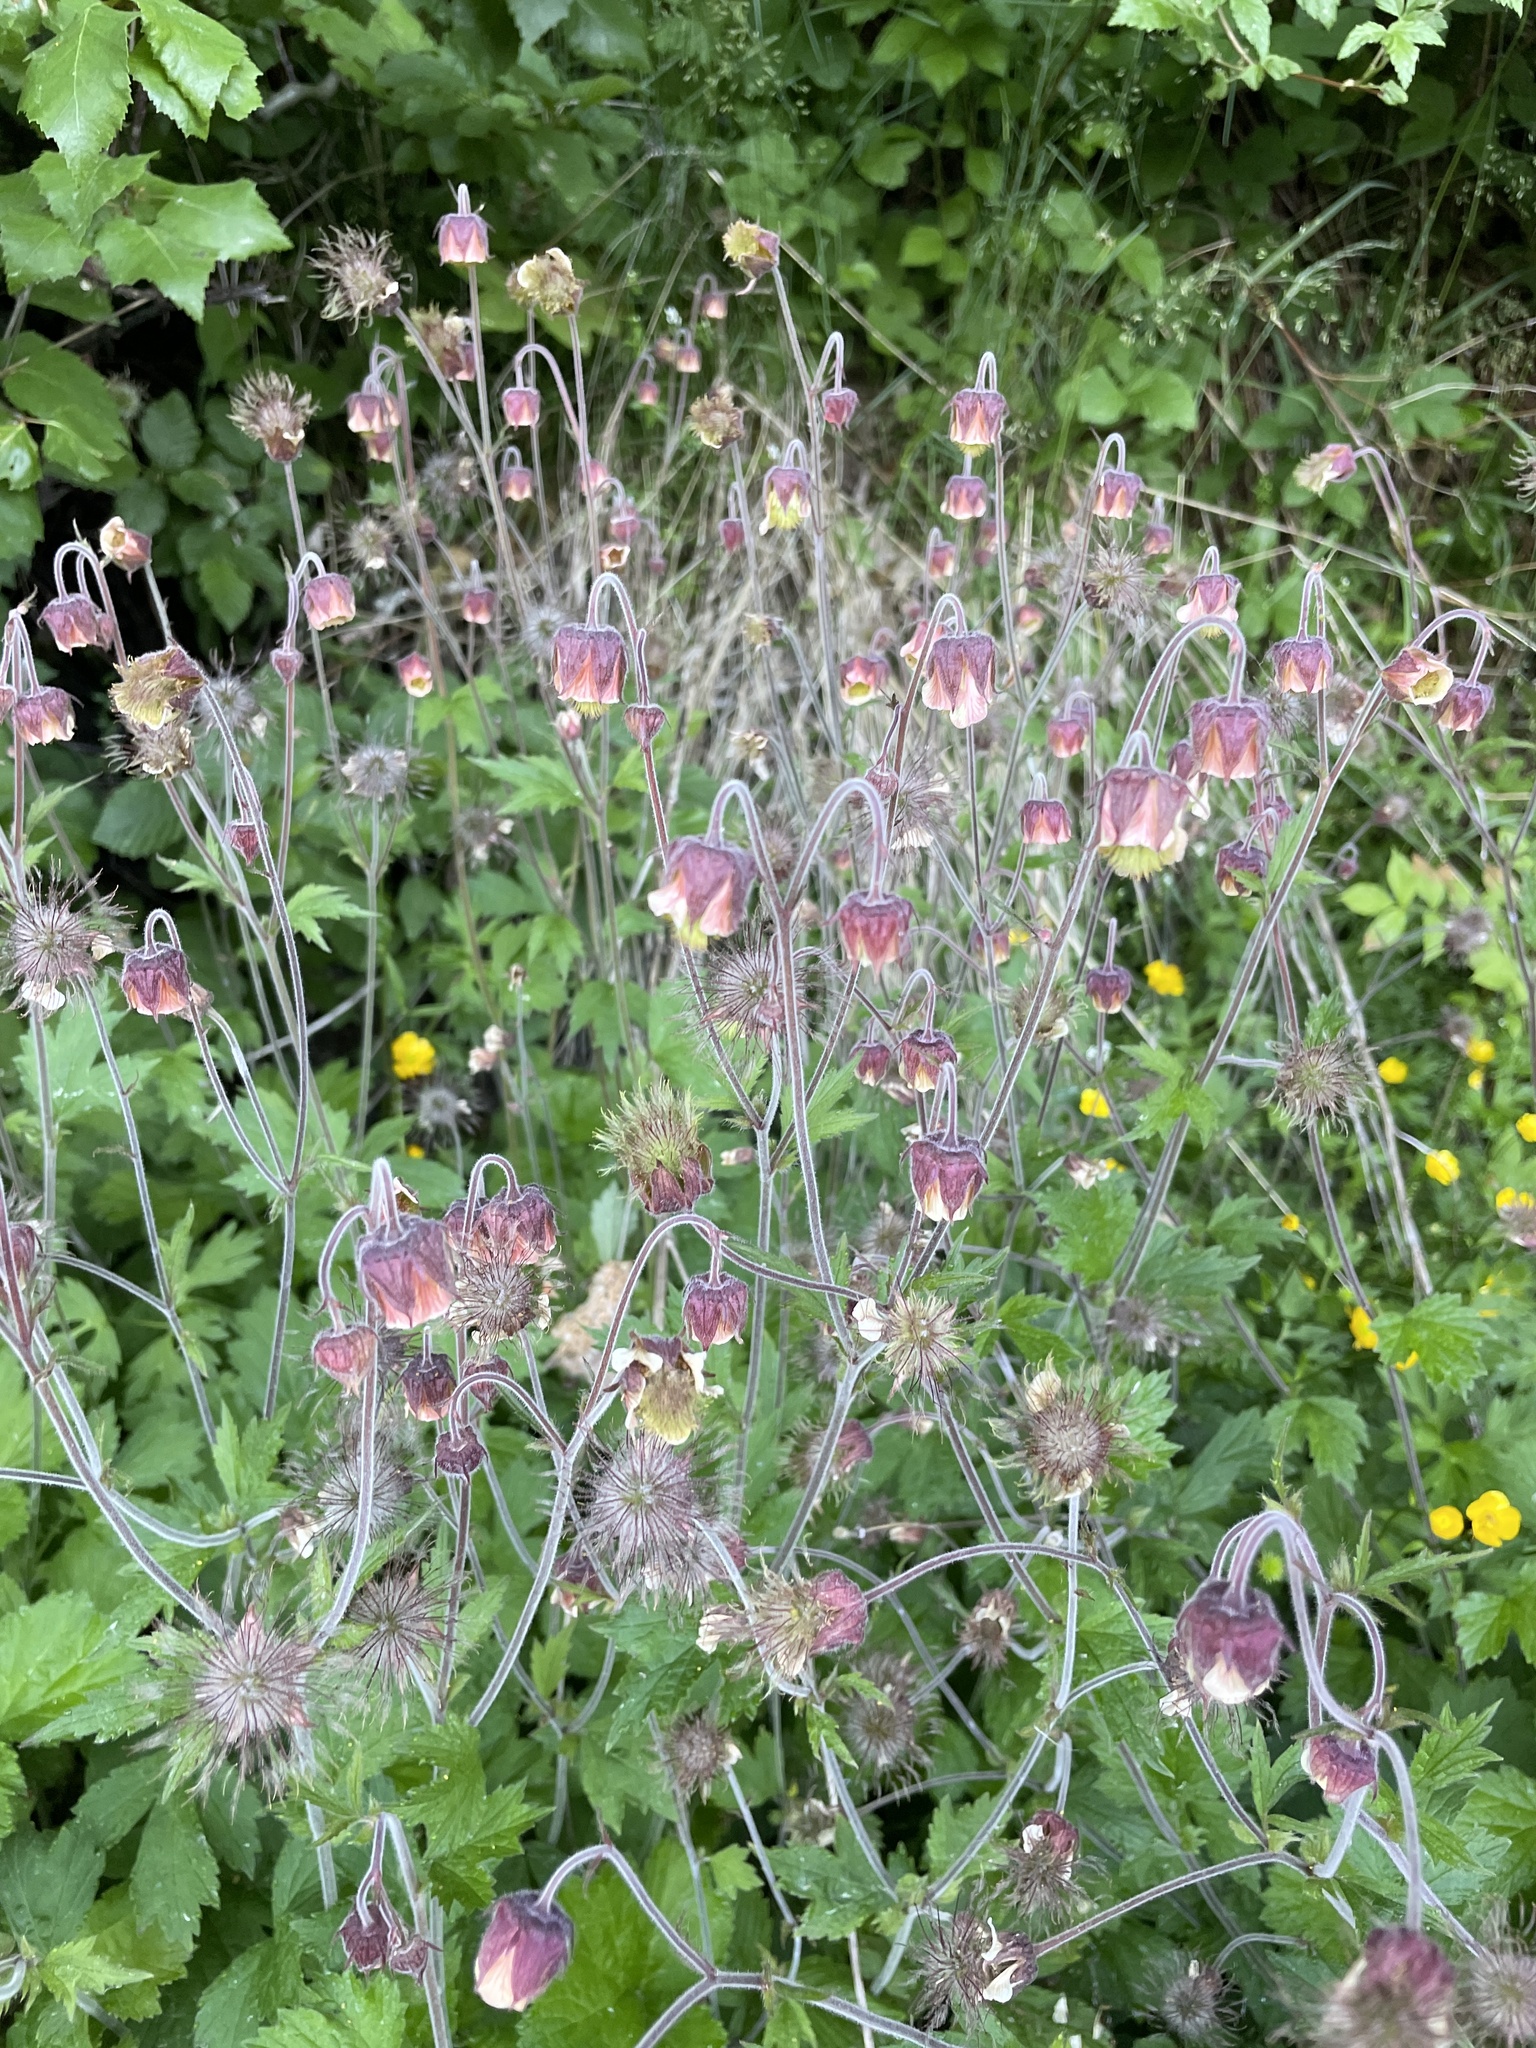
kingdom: Plantae
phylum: Tracheophyta
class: Magnoliopsida
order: Rosales
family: Rosaceae
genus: Geum
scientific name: Geum rivale
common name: Water avens
